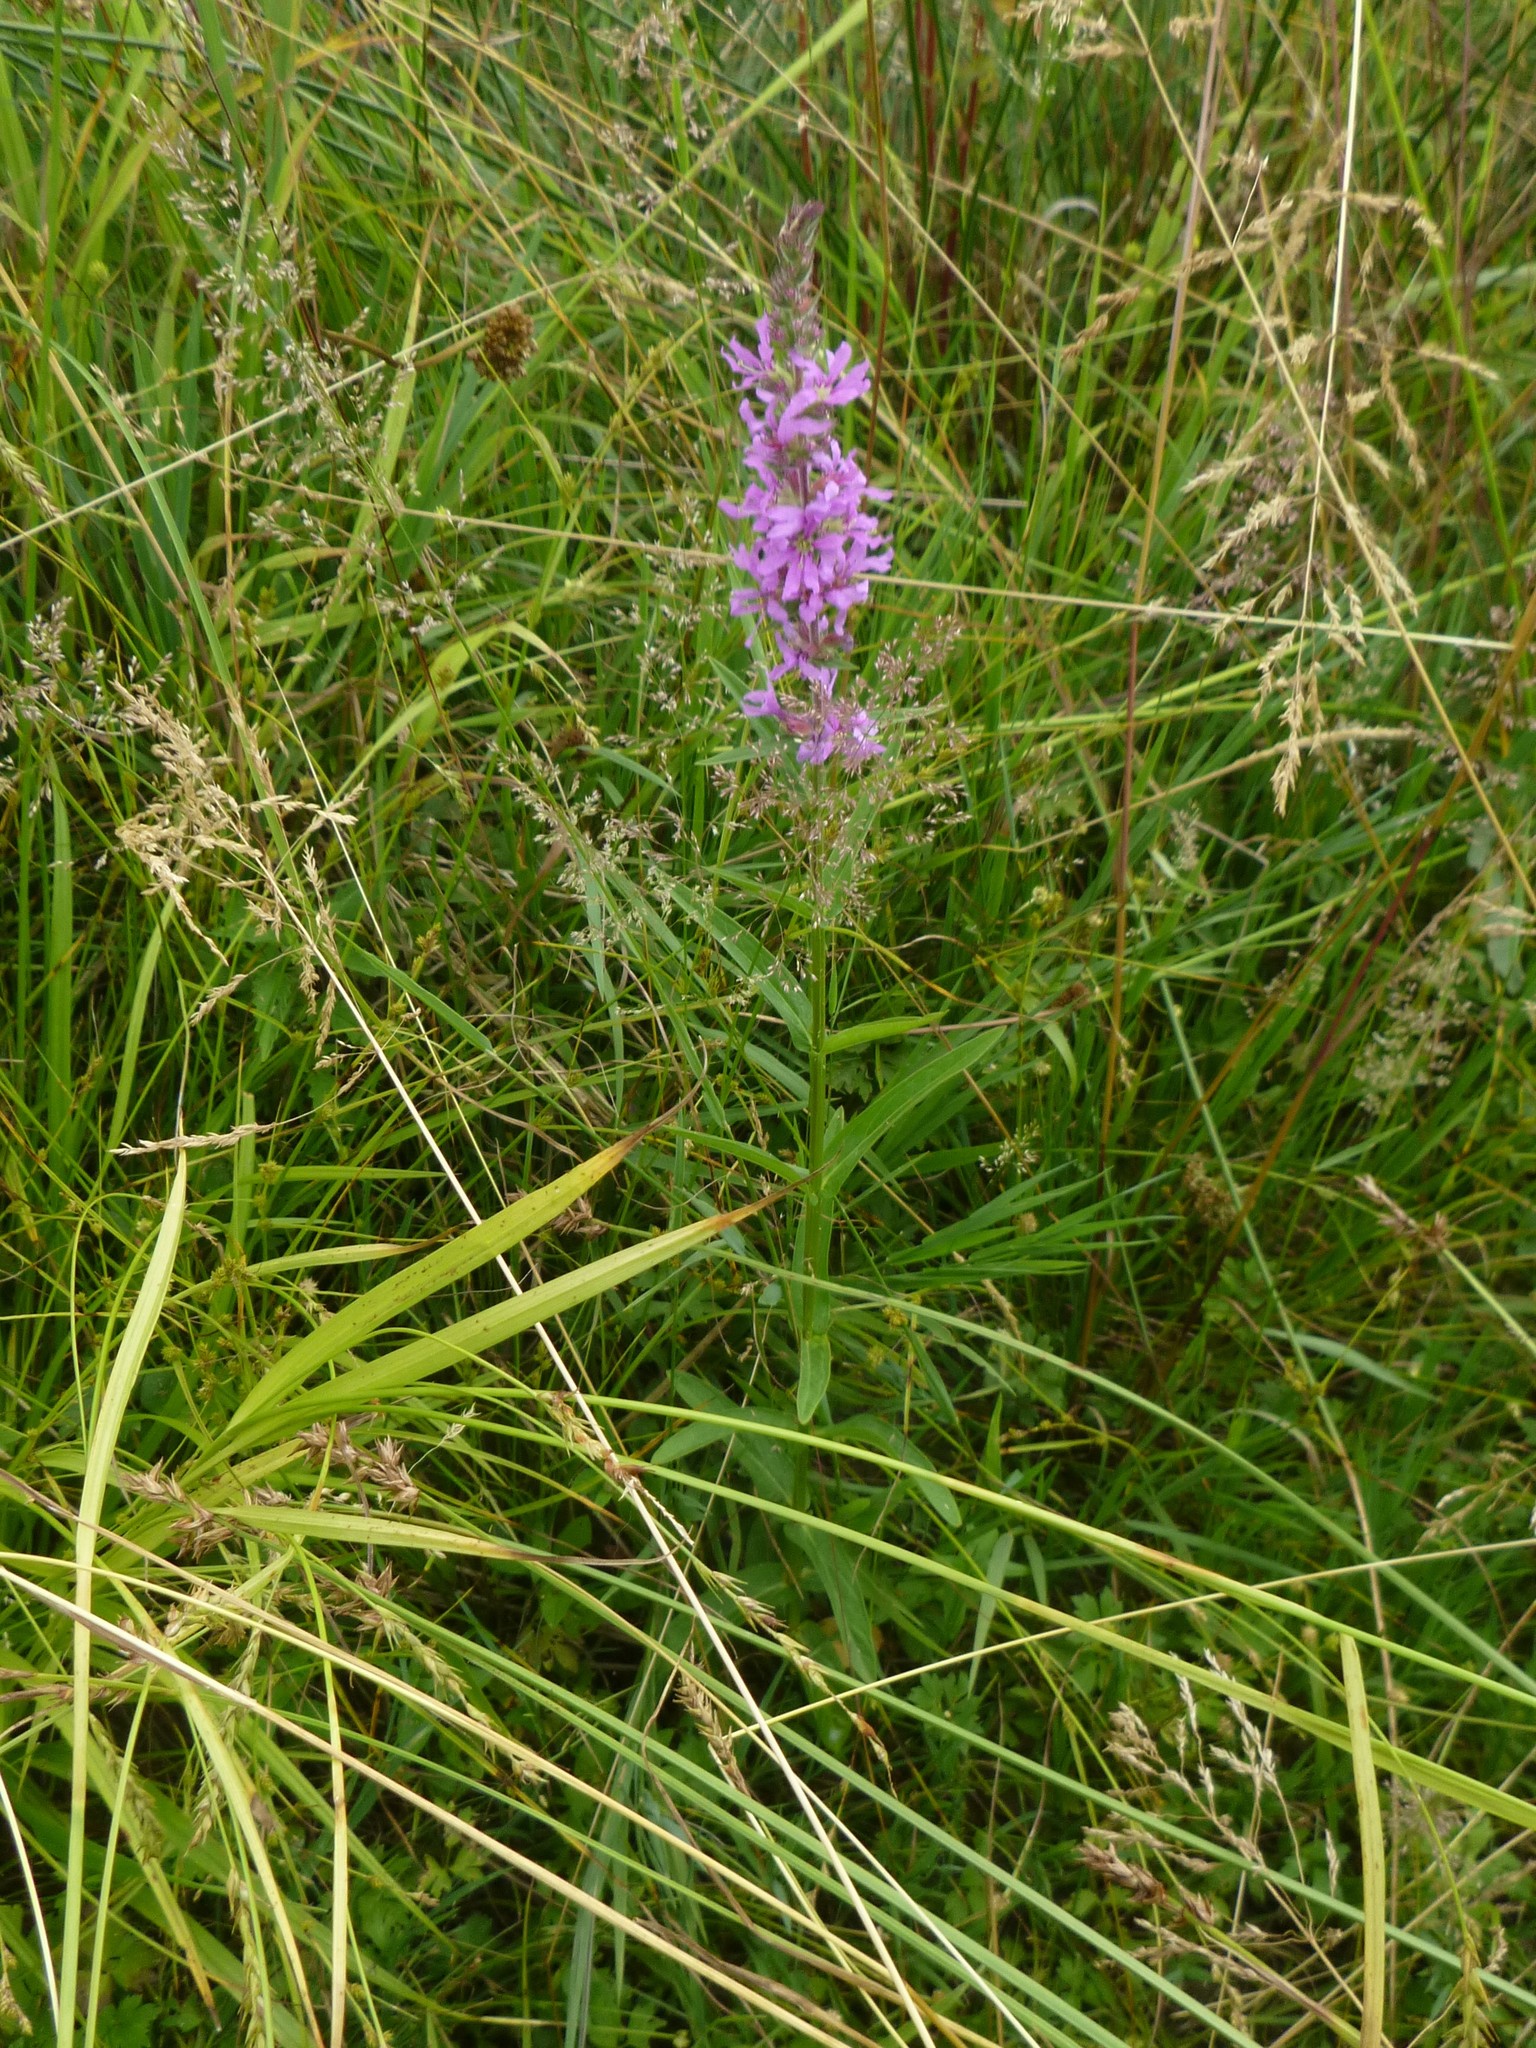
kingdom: Plantae
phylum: Tracheophyta
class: Magnoliopsida
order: Myrtales
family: Lythraceae
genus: Lythrum
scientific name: Lythrum salicaria
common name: Purple loosestrife
